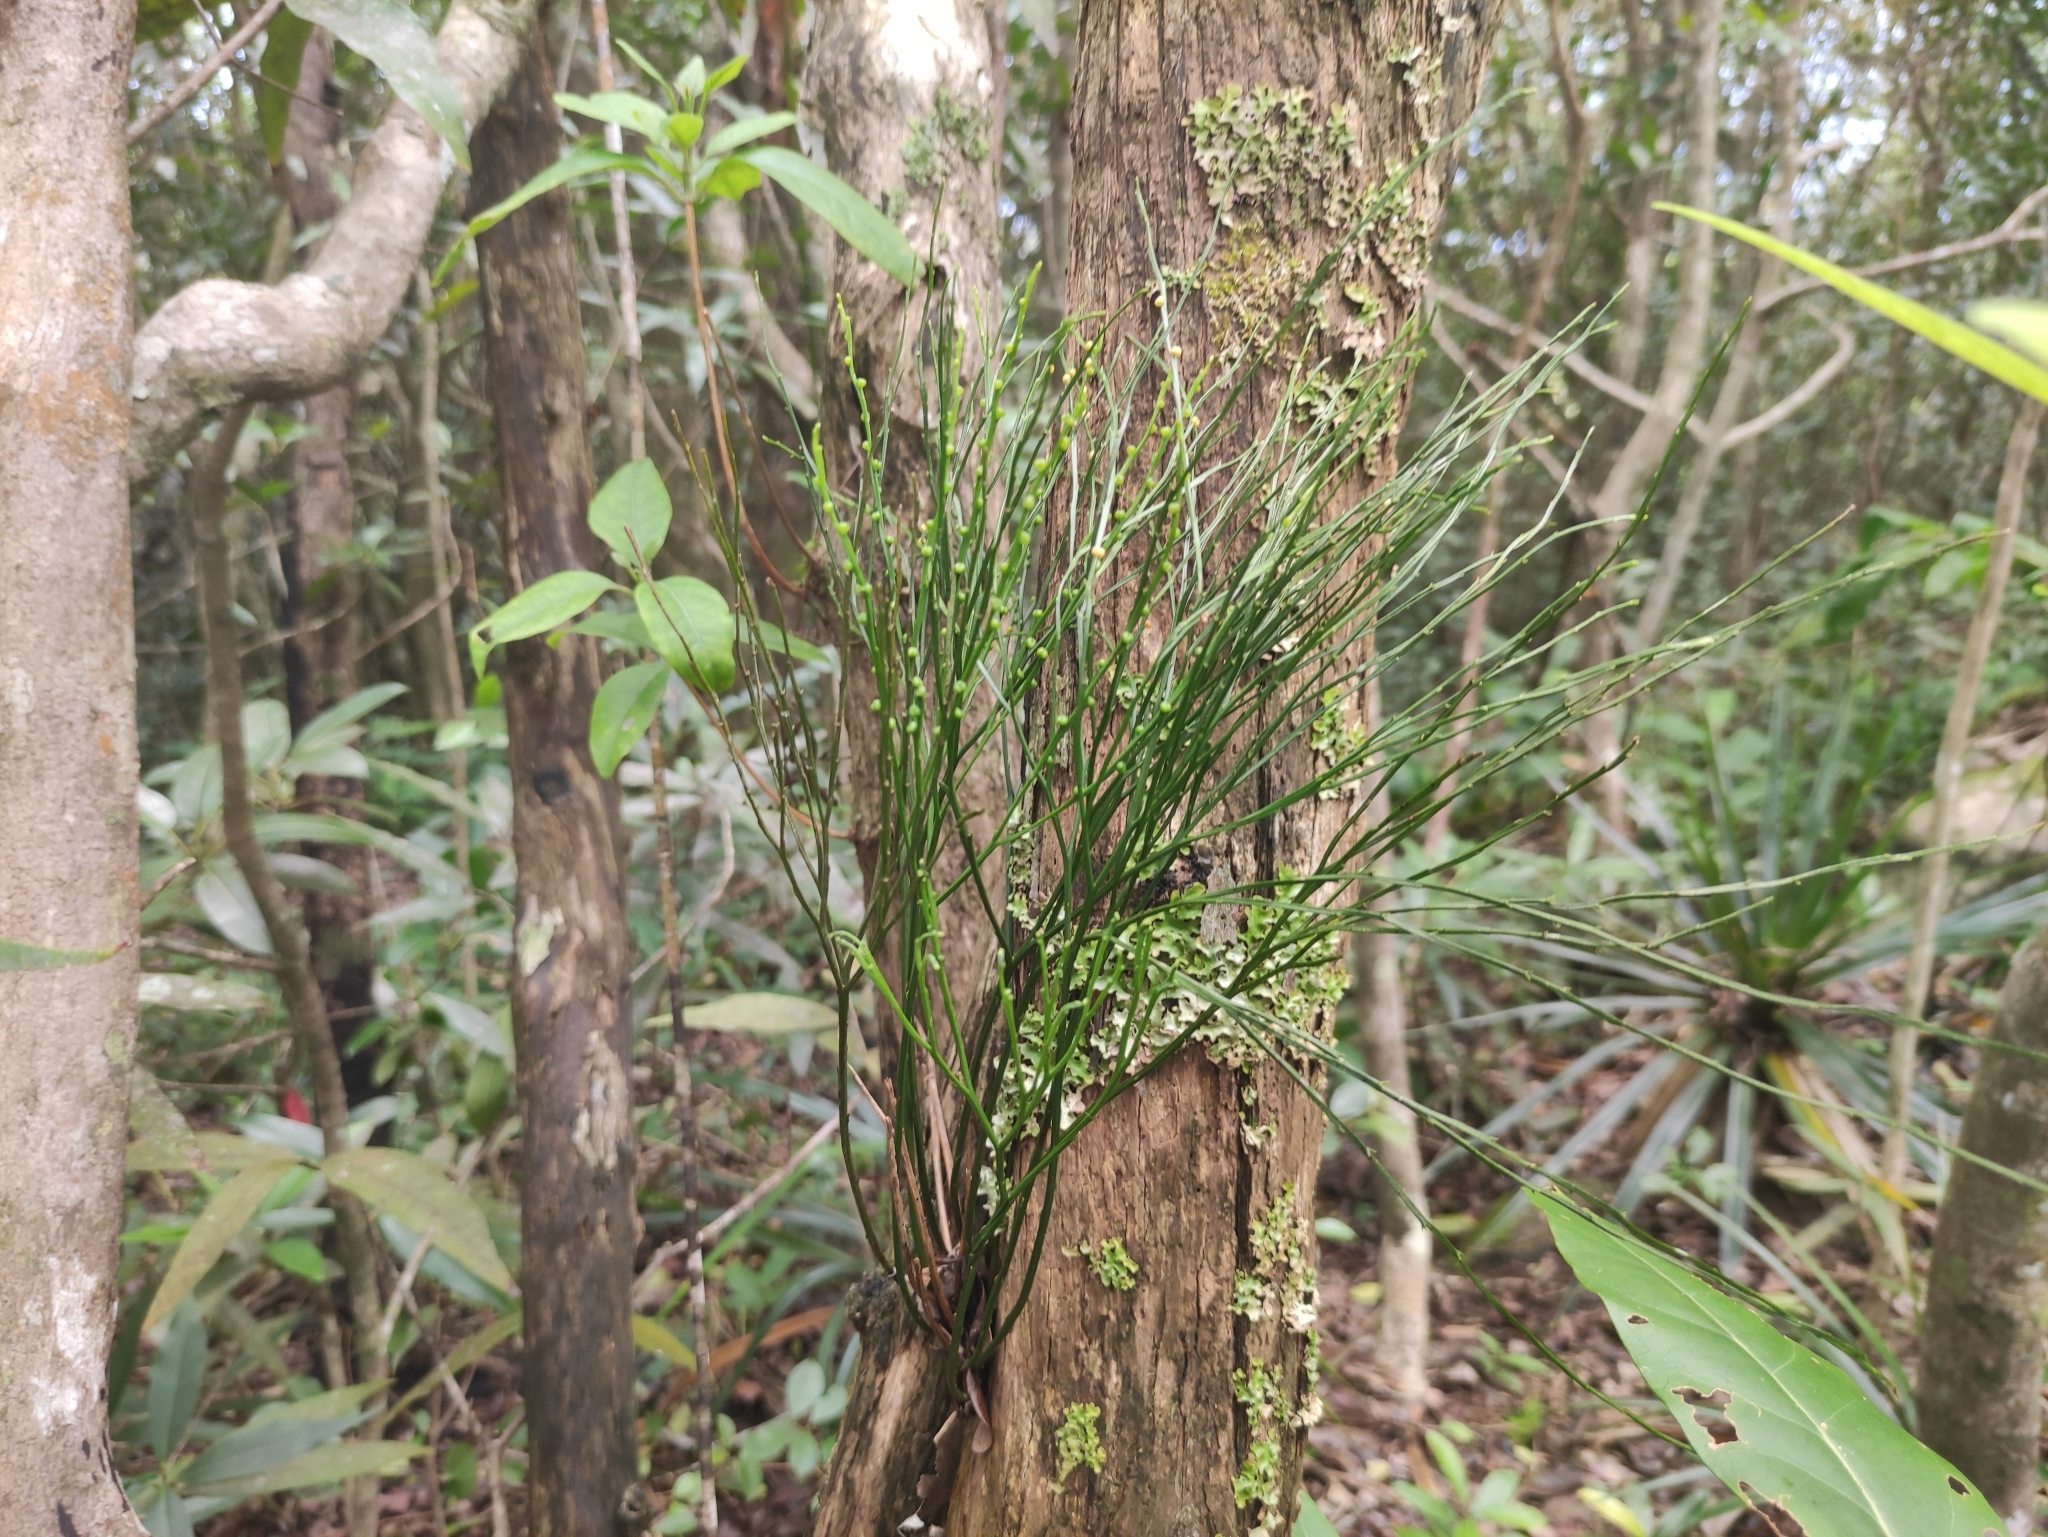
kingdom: Plantae
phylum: Tracheophyta
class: Polypodiopsida
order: Psilotales
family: Psilotaceae
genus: Psilotum
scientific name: Psilotum nudum
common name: Skeleton fork fern
